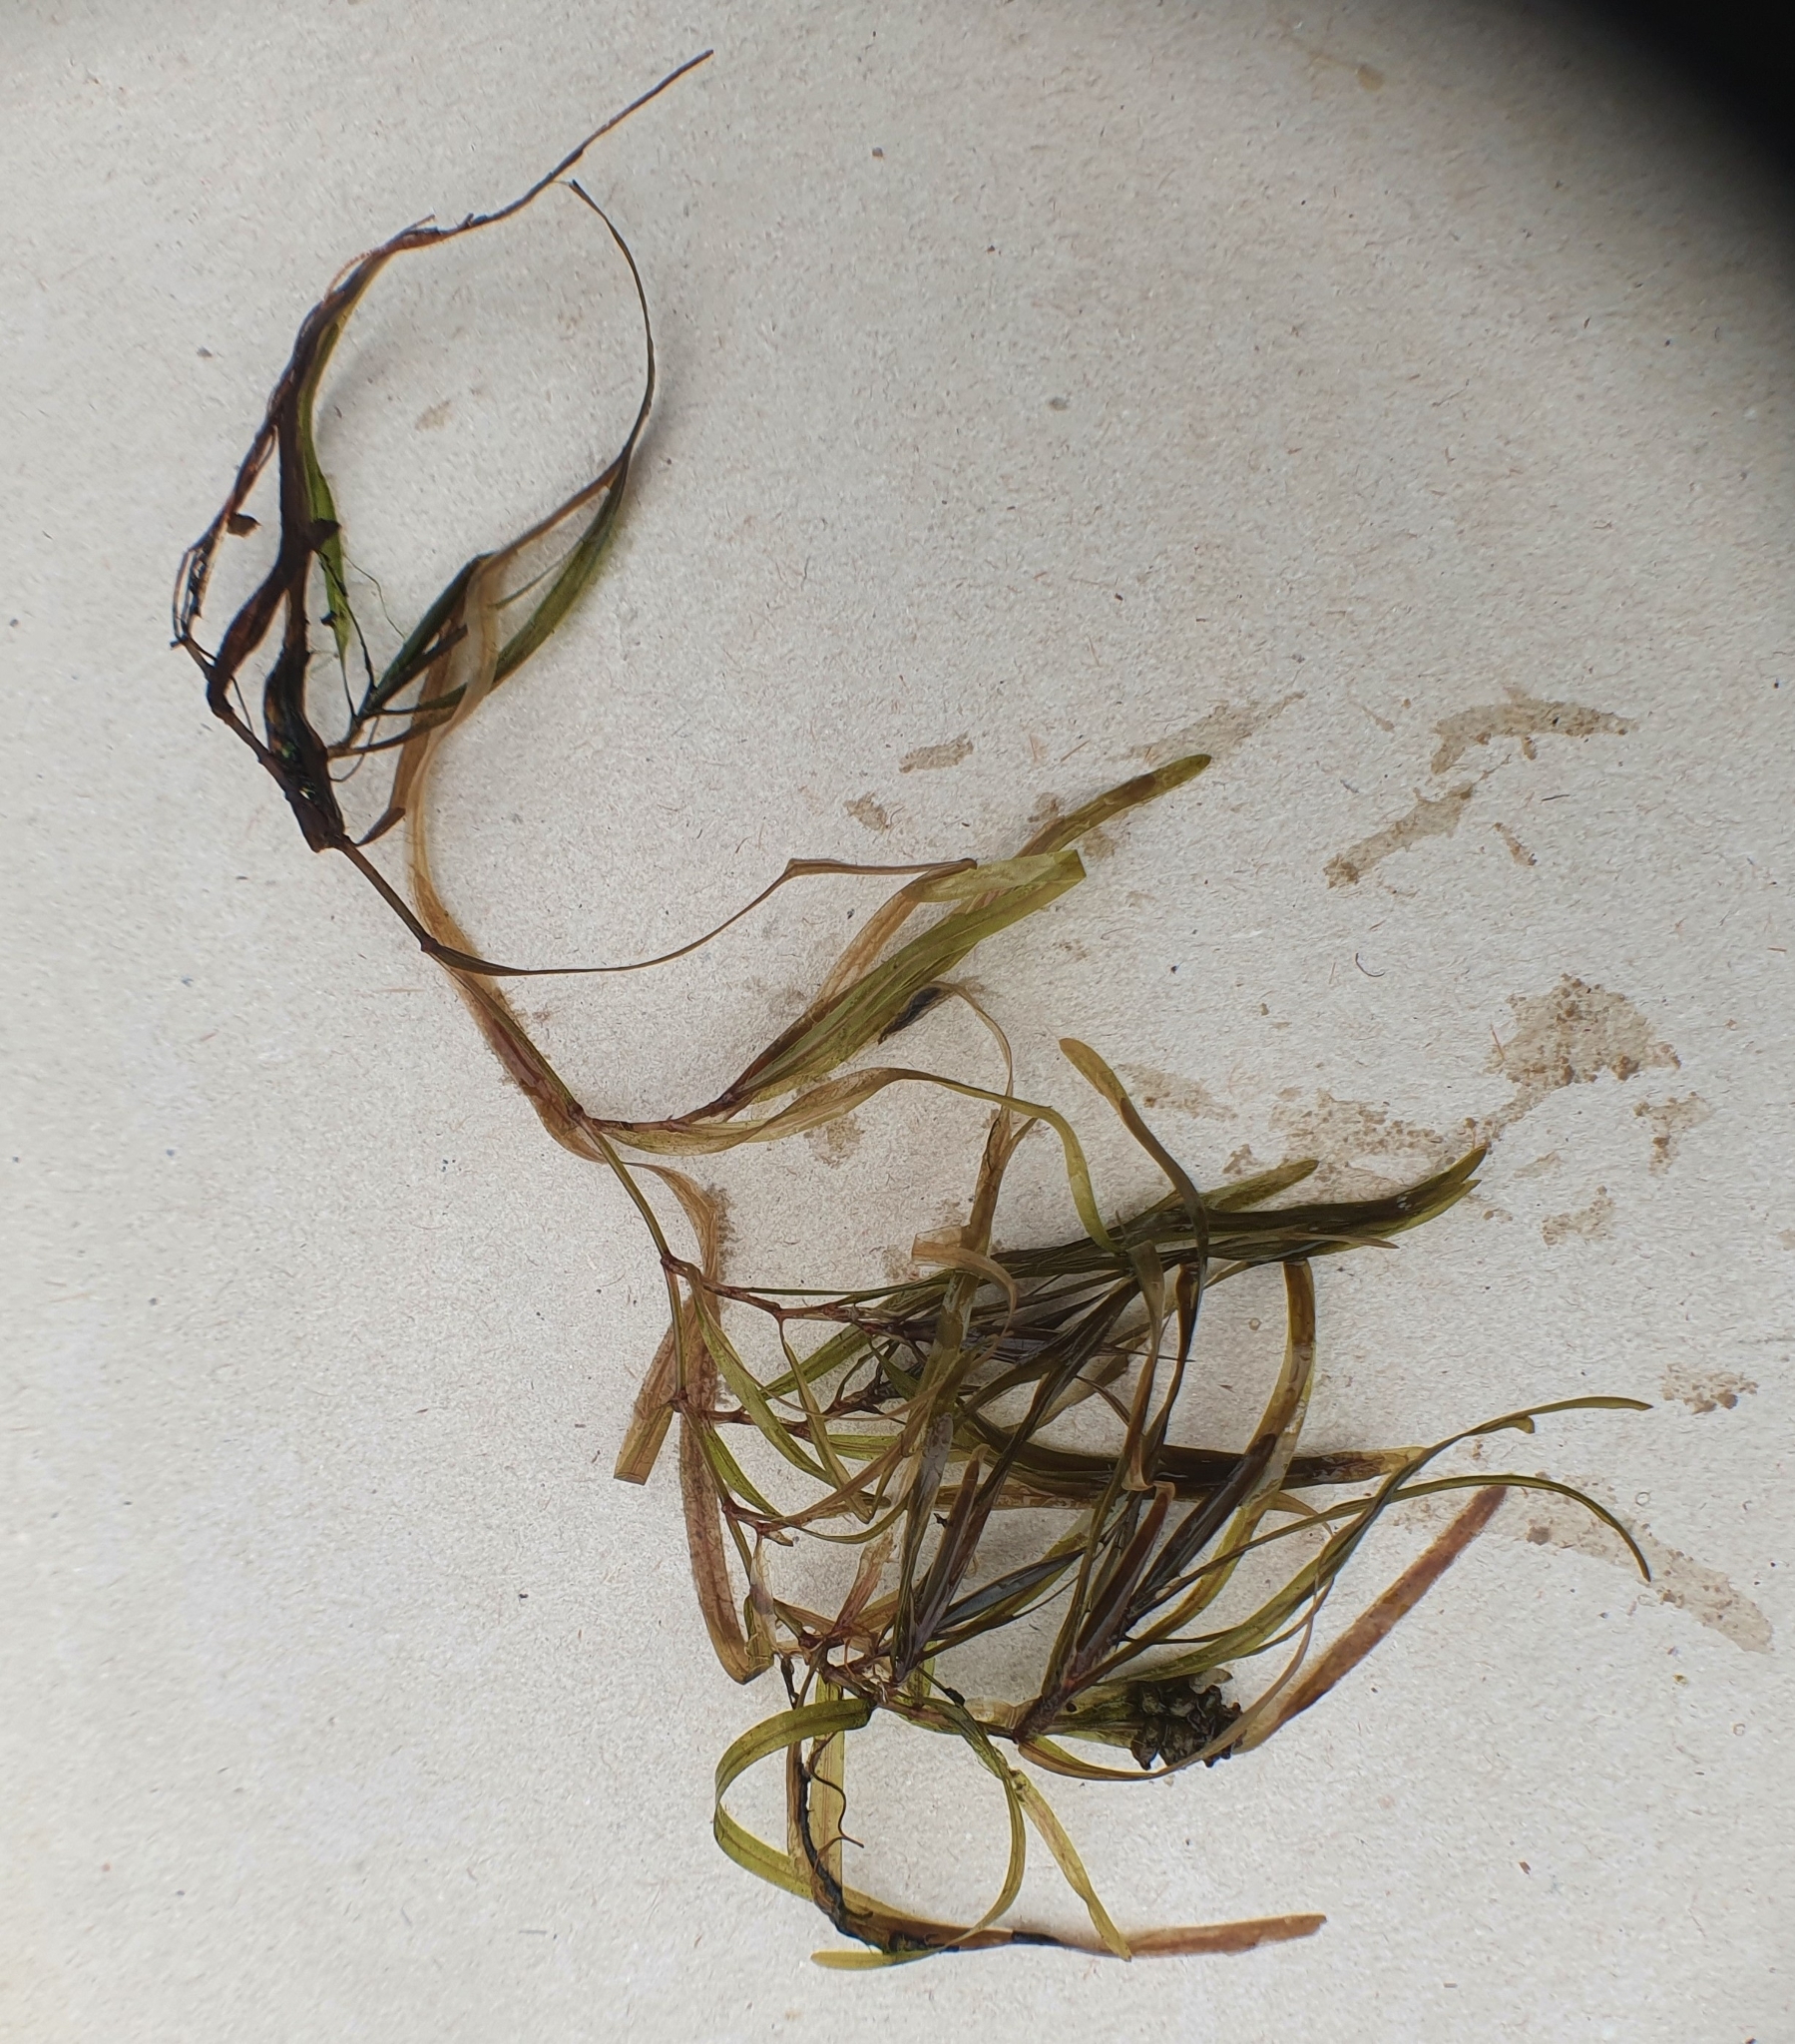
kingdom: Plantae
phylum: Tracheophyta
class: Liliopsida
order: Alismatales
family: Potamogetonaceae
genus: Potamogeton
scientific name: Potamogeton obtusifolius
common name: Blunt-leaved pondweed
